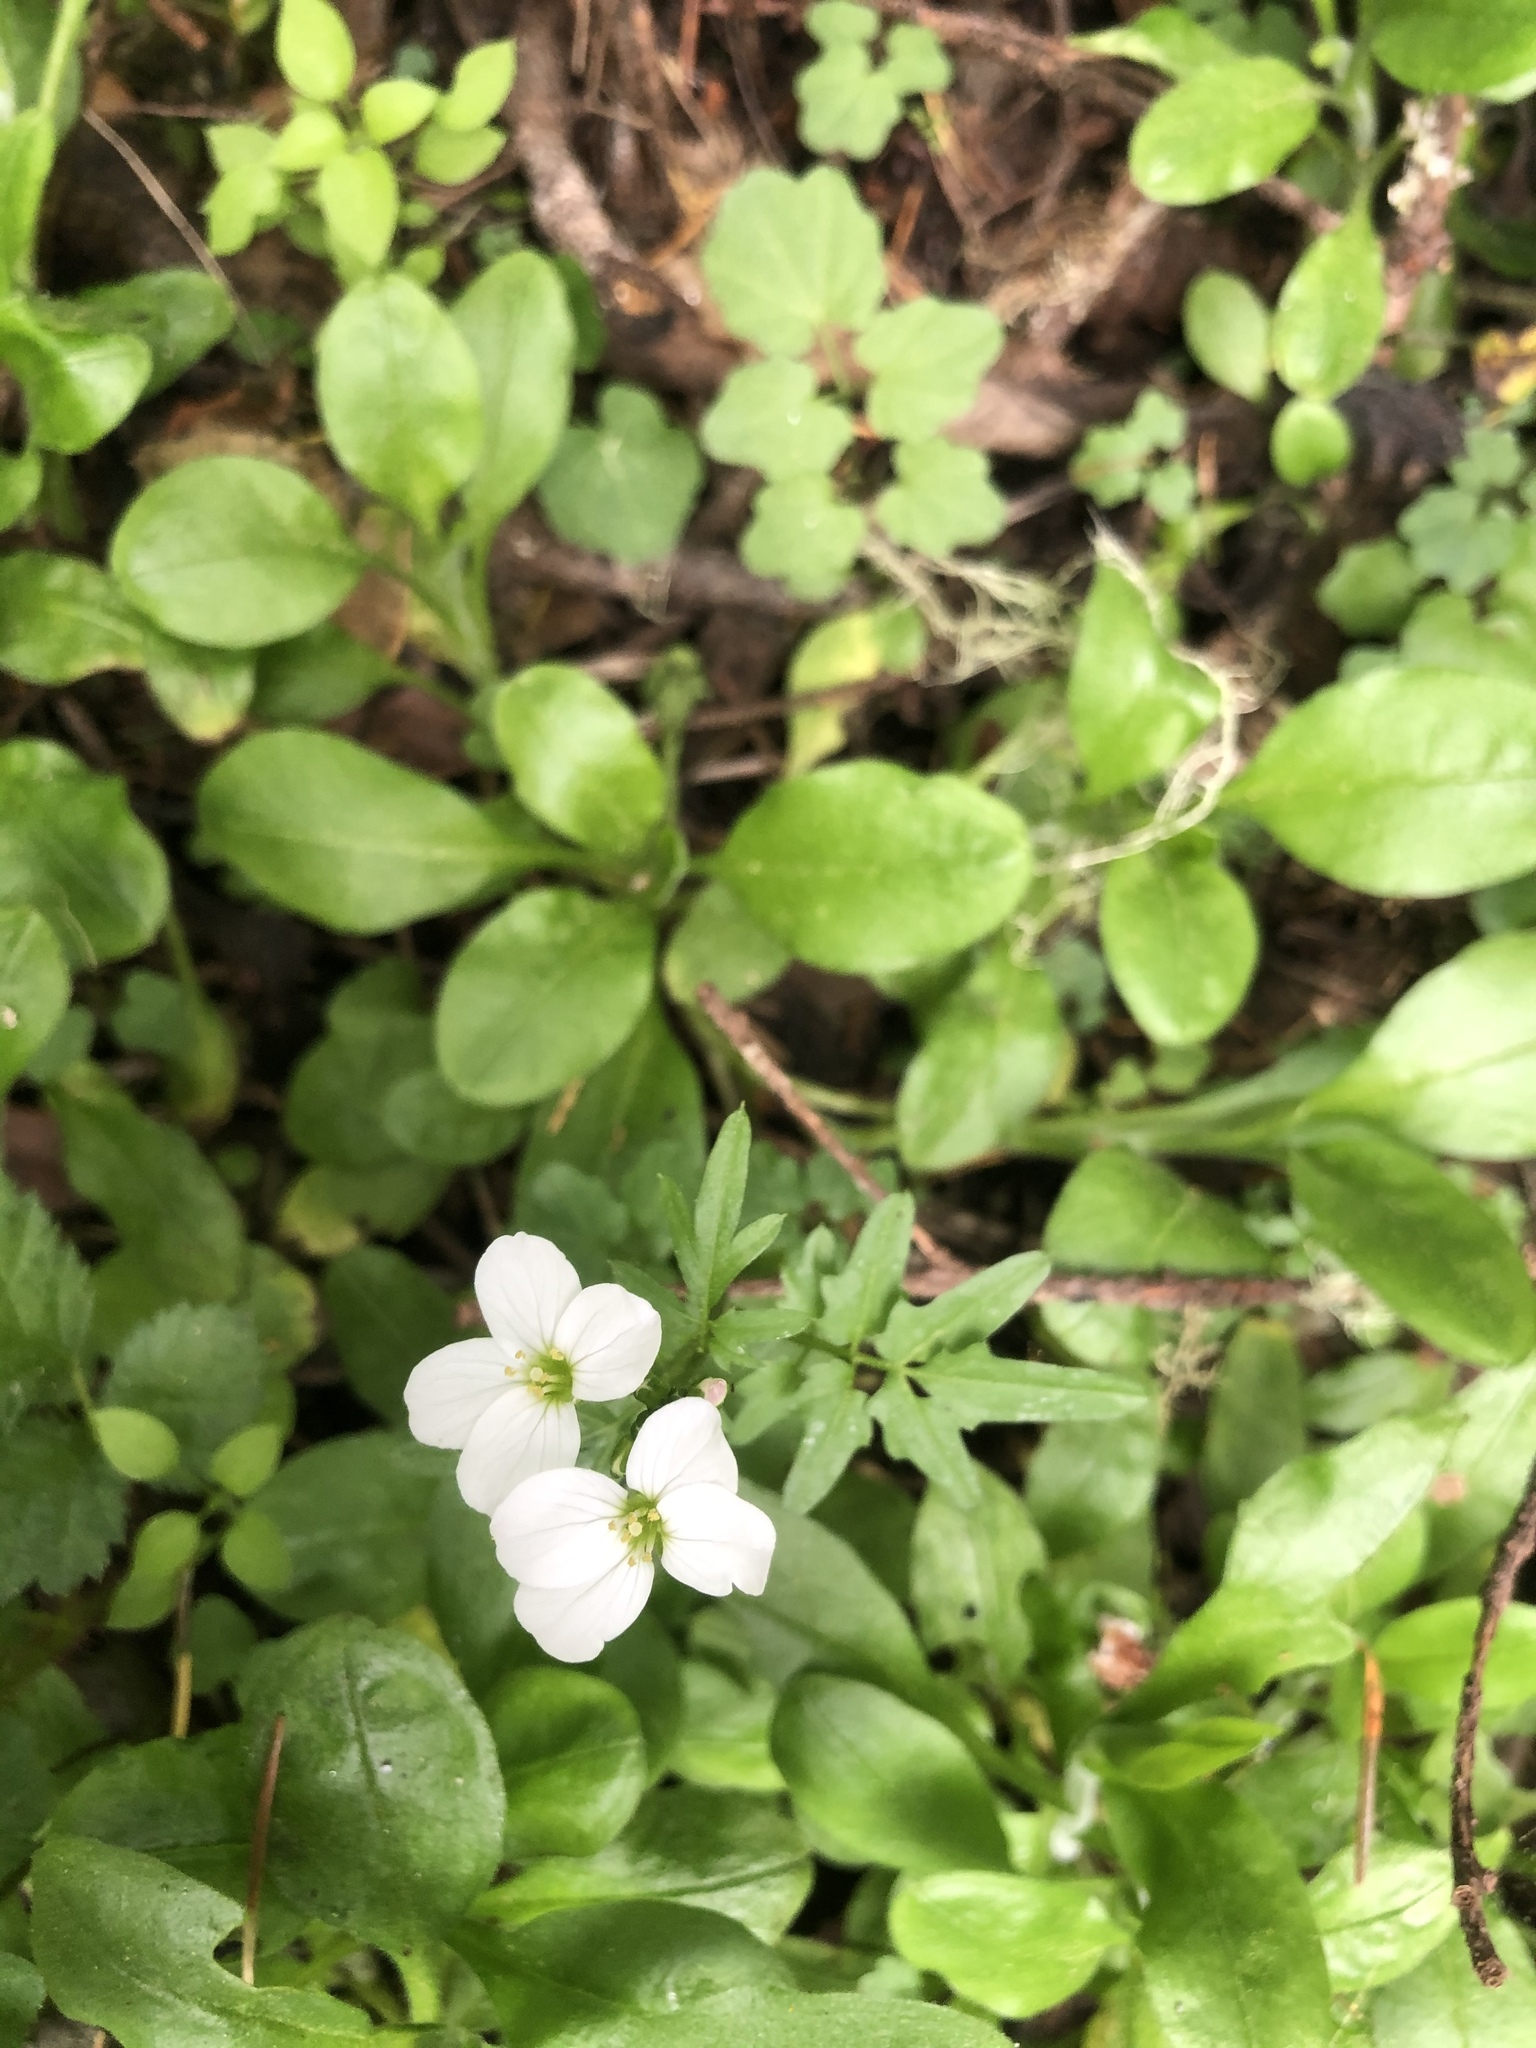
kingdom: Plantae
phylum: Tracheophyta
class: Magnoliopsida
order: Brassicales
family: Brassicaceae
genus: Cardamine
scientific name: Cardamine californica
